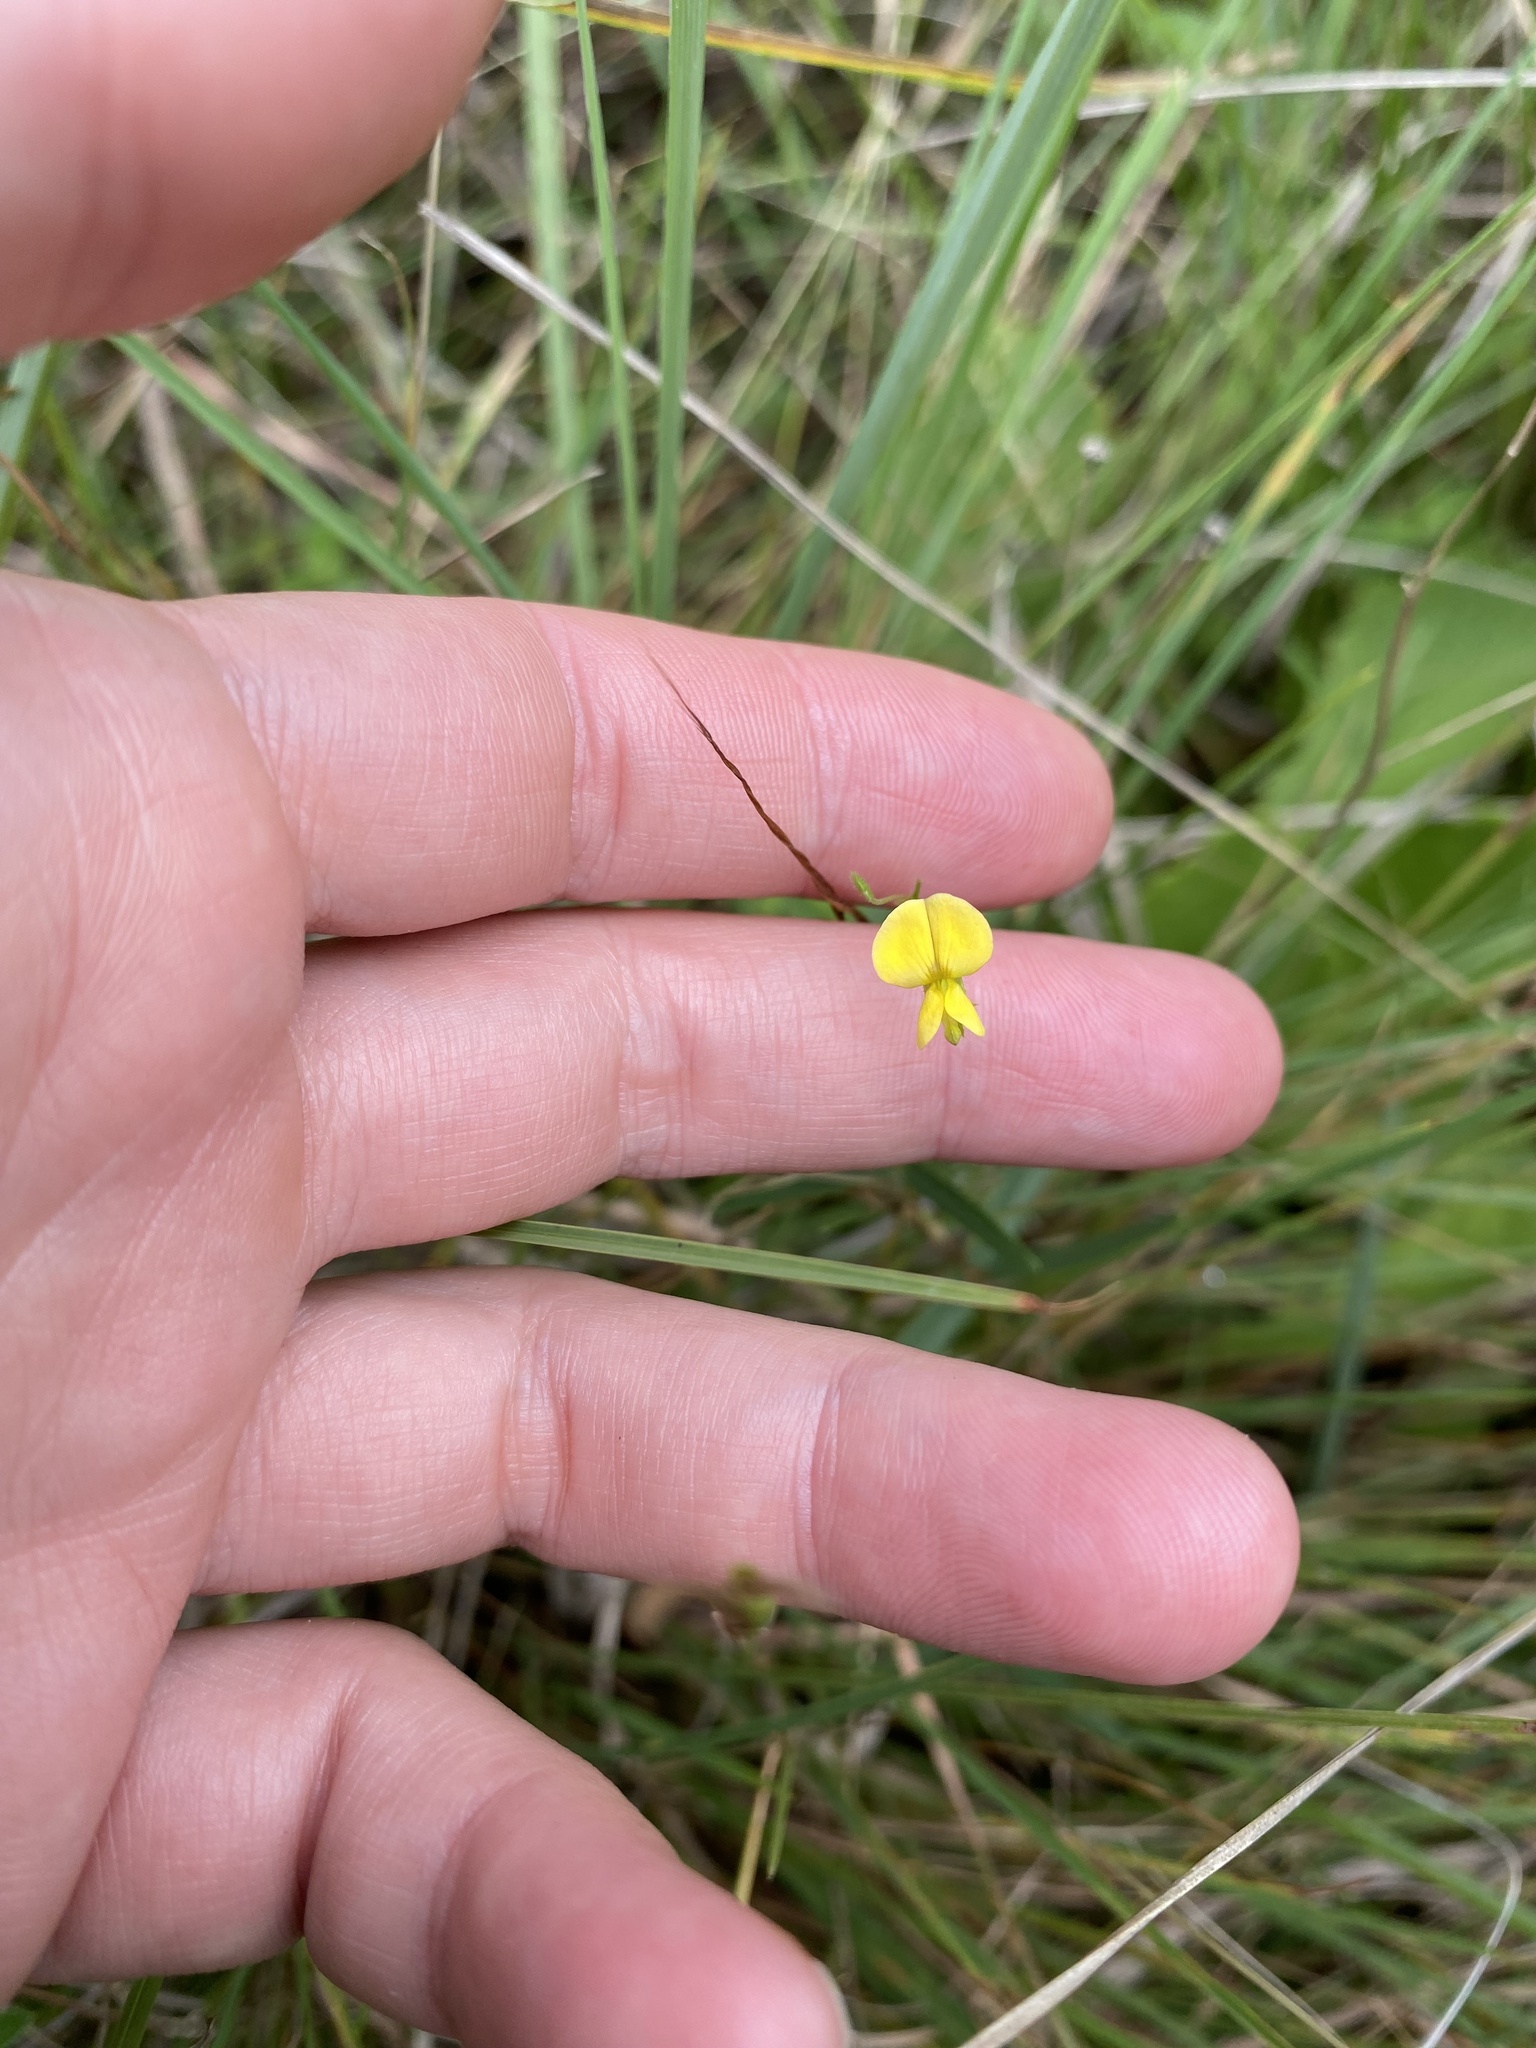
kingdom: Plantae
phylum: Tracheophyta
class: Magnoliopsida
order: Fabales
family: Fabaceae
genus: Rhynchosia
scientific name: Rhynchosia totta
